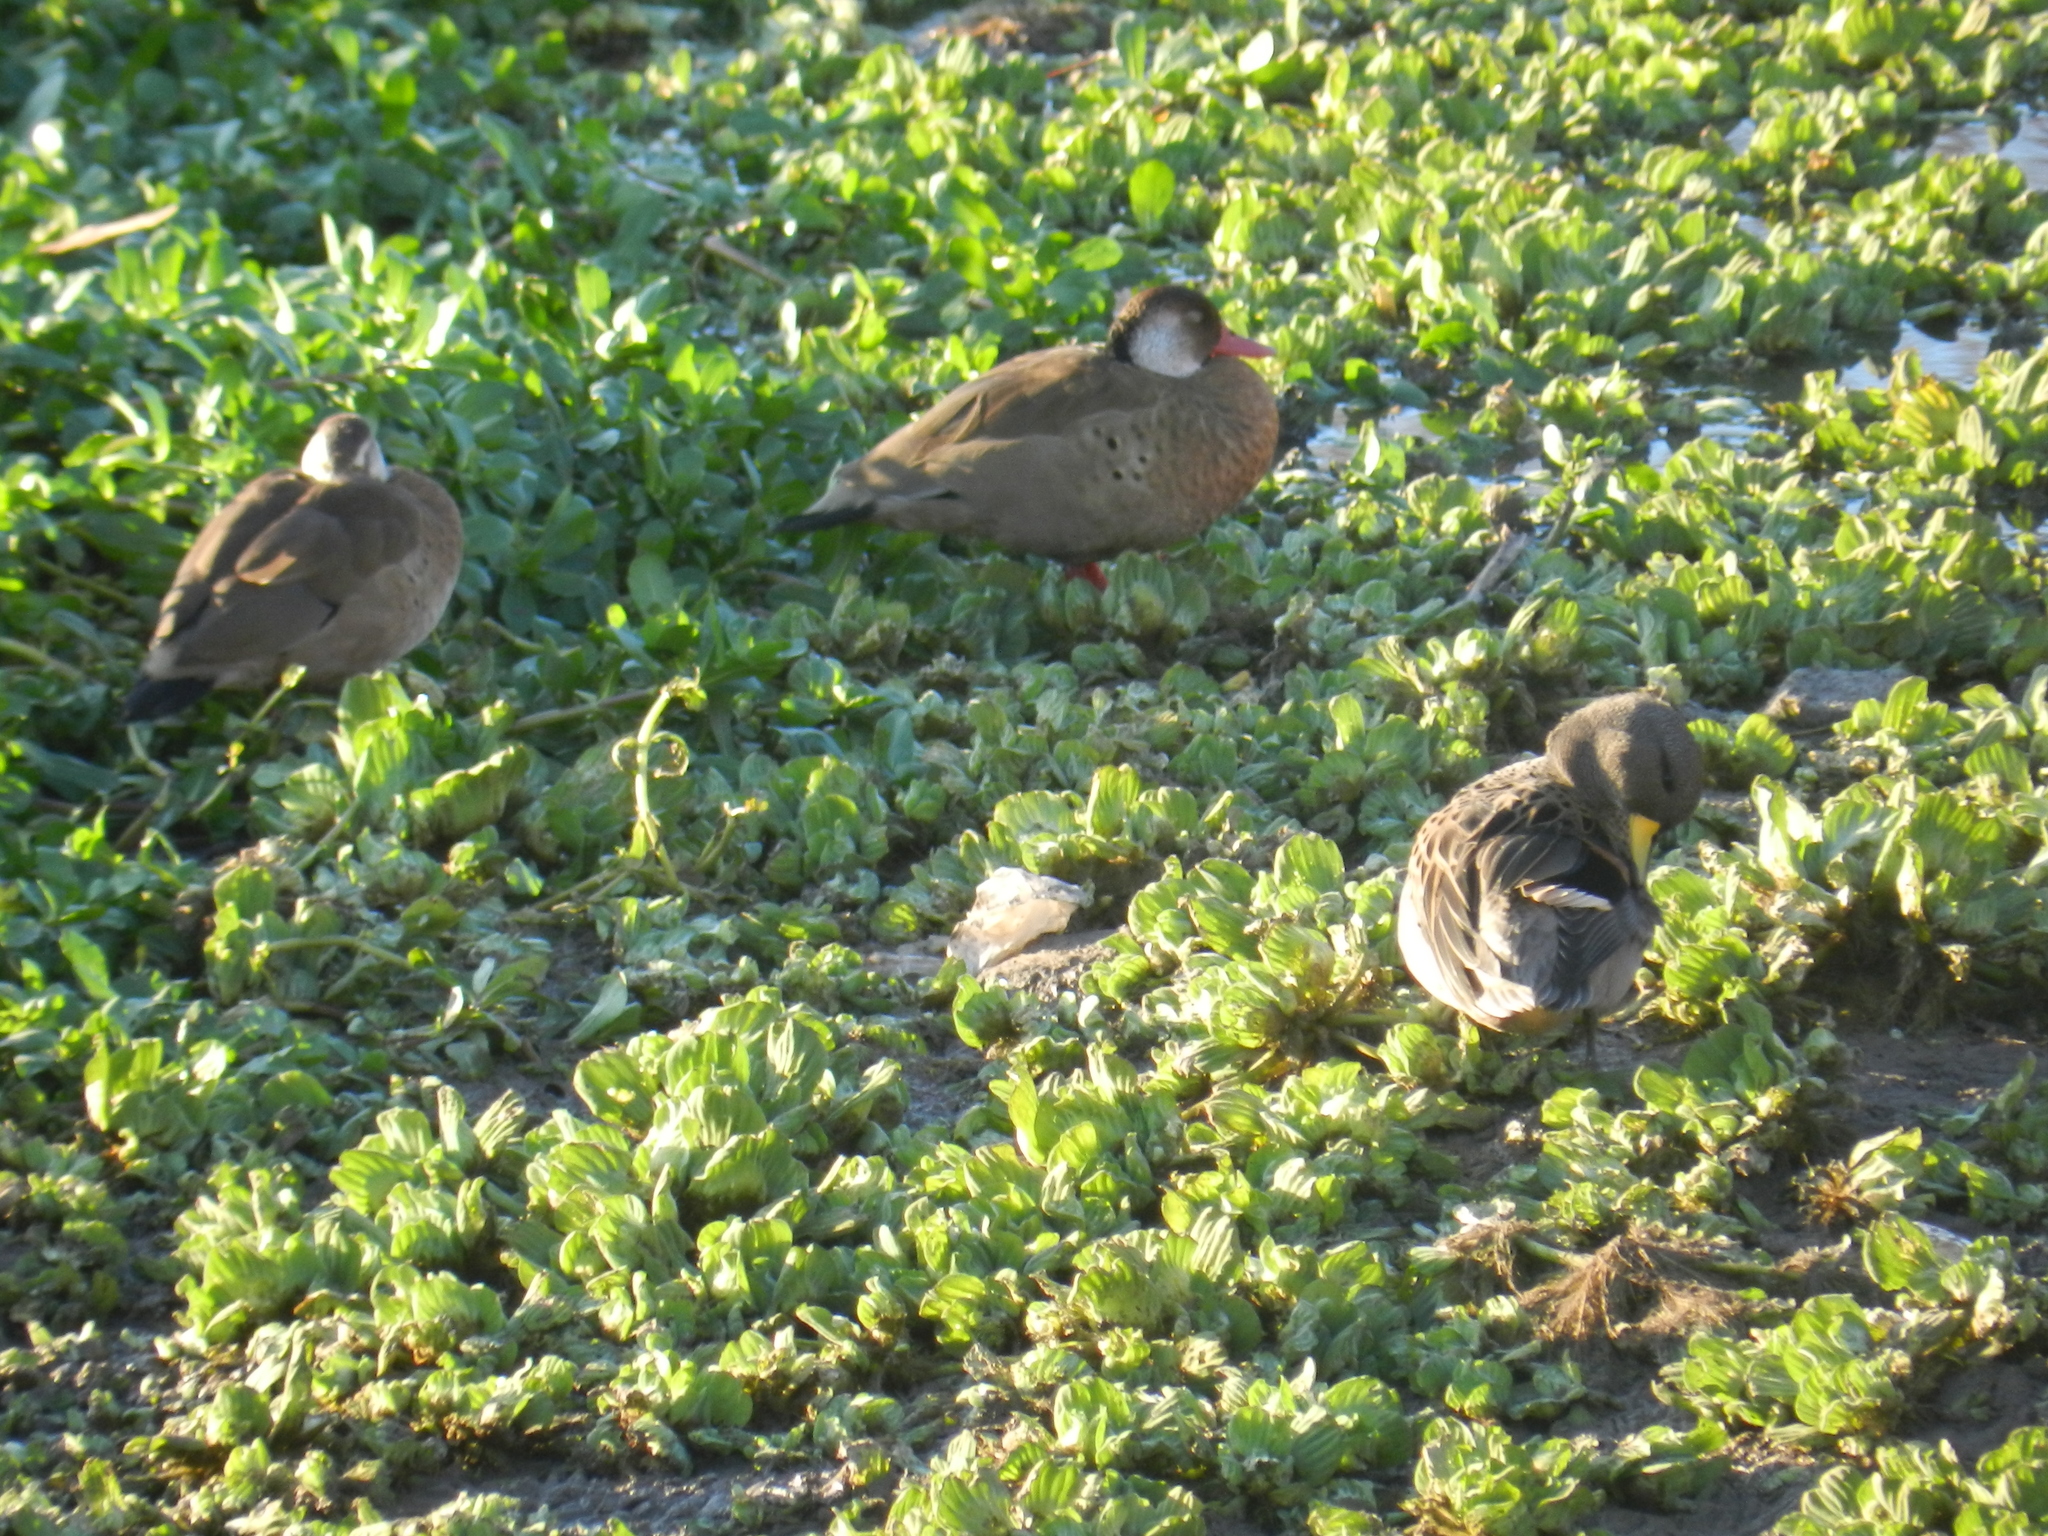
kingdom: Animalia
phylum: Chordata
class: Aves
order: Anseriformes
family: Anatidae
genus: Amazonetta
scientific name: Amazonetta brasiliensis
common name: Brazilian teal
